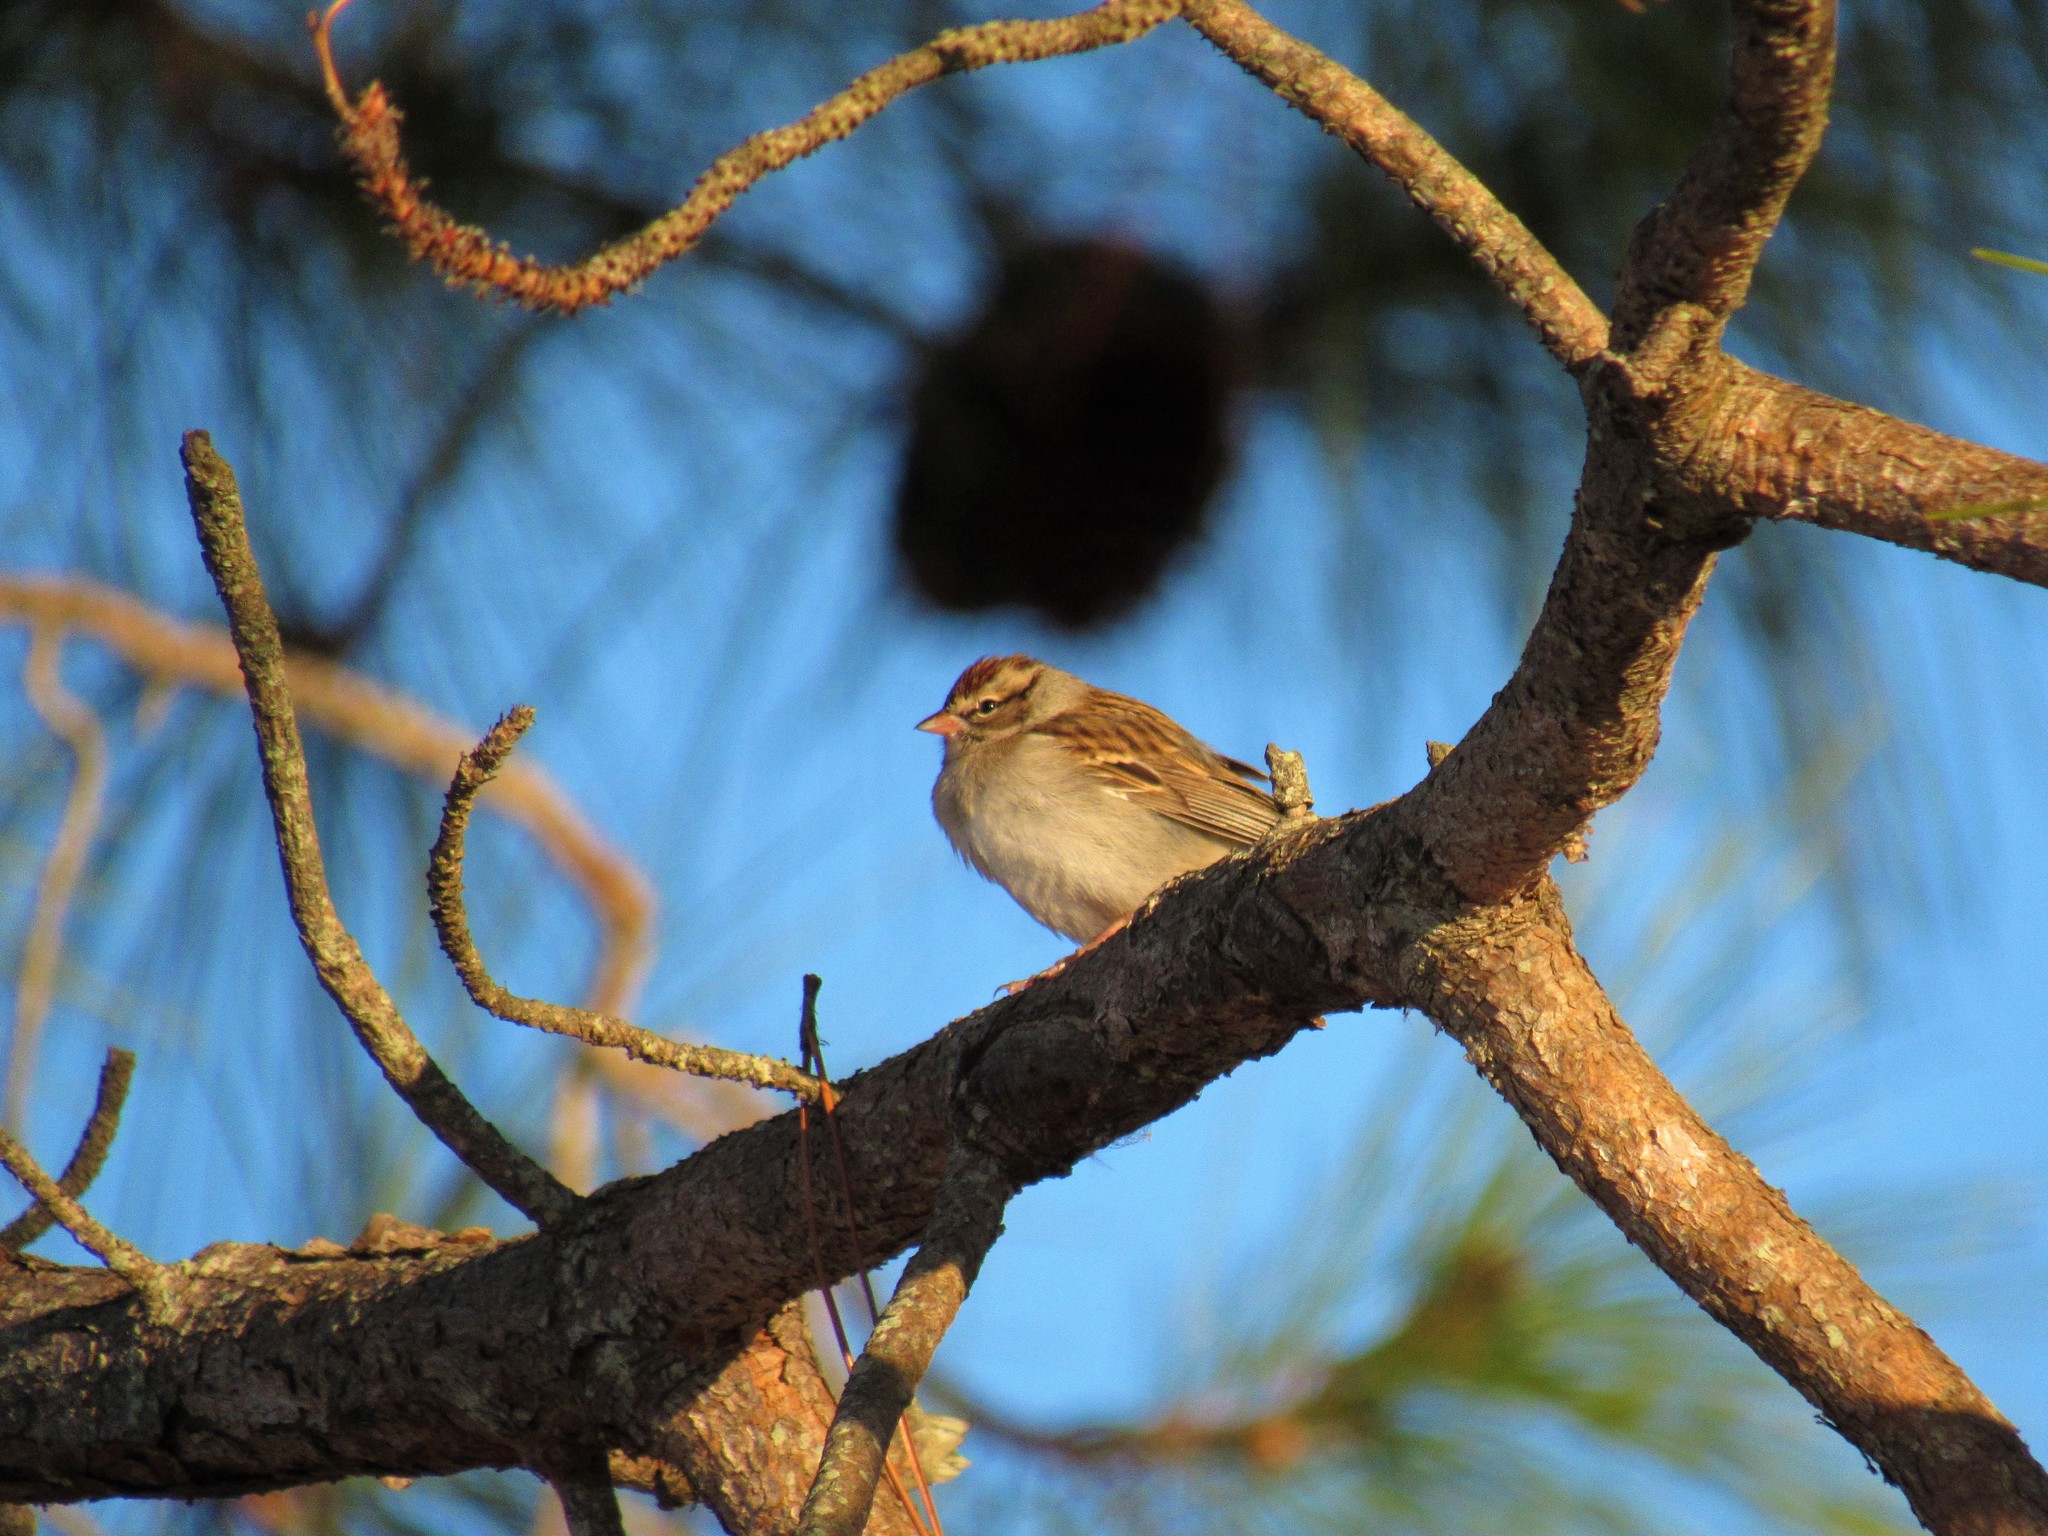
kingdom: Animalia
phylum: Chordata
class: Aves
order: Passeriformes
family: Passerellidae
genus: Spizella
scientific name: Spizella passerina
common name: Chipping sparrow
